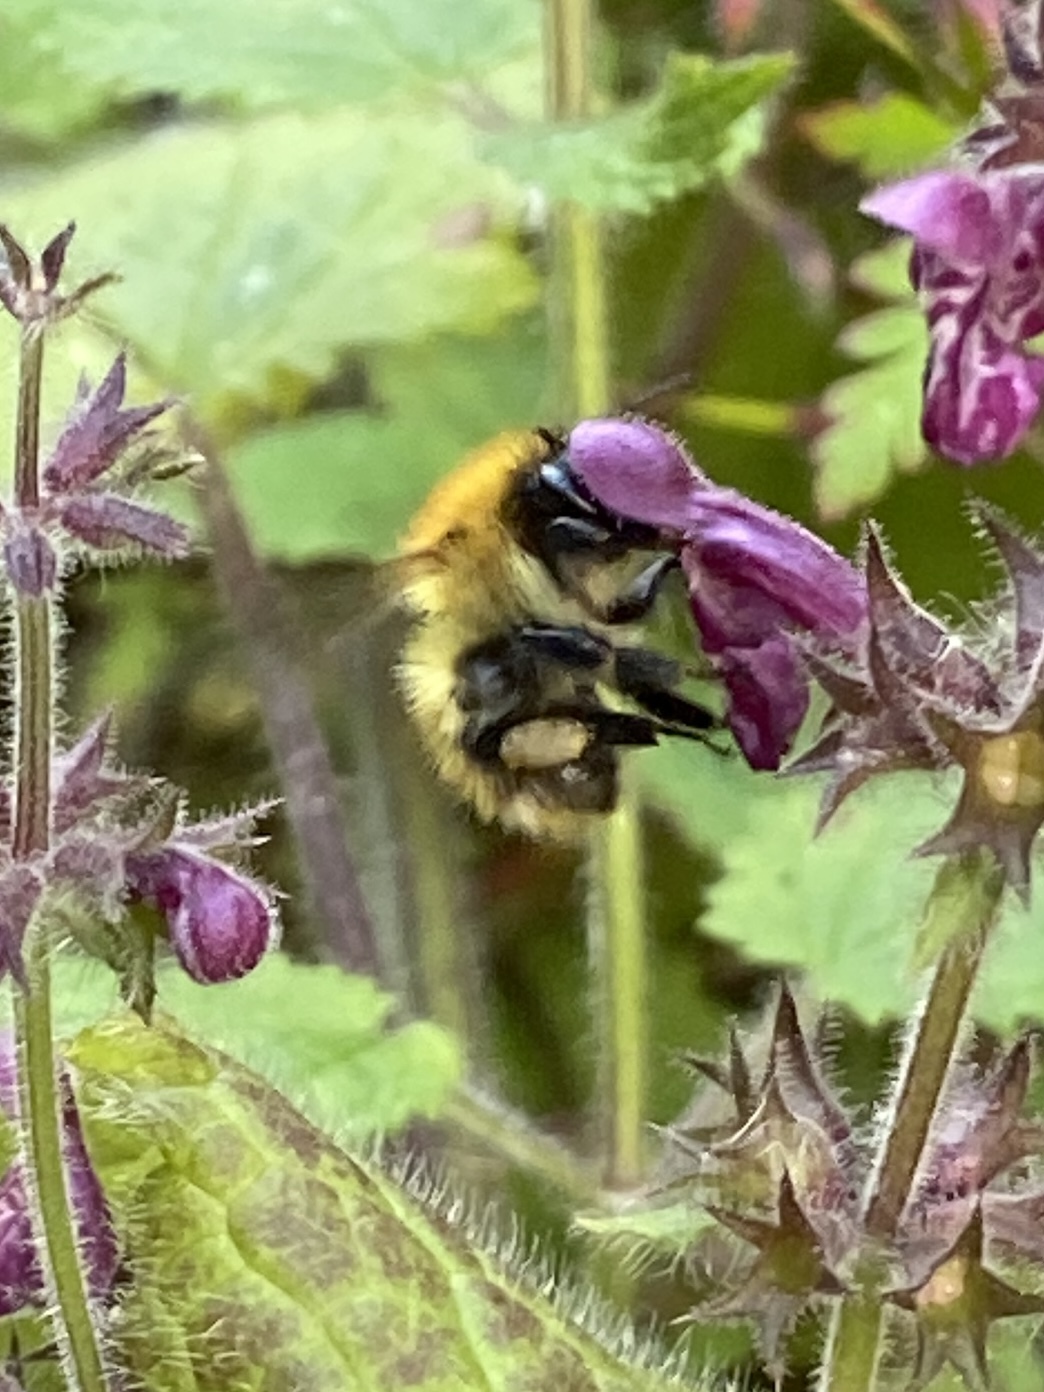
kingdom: Animalia
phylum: Arthropoda
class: Insecta
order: Hymenoptera
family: Apidae
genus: Bombus
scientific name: Bombus pascuorum
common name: Common carder bee
